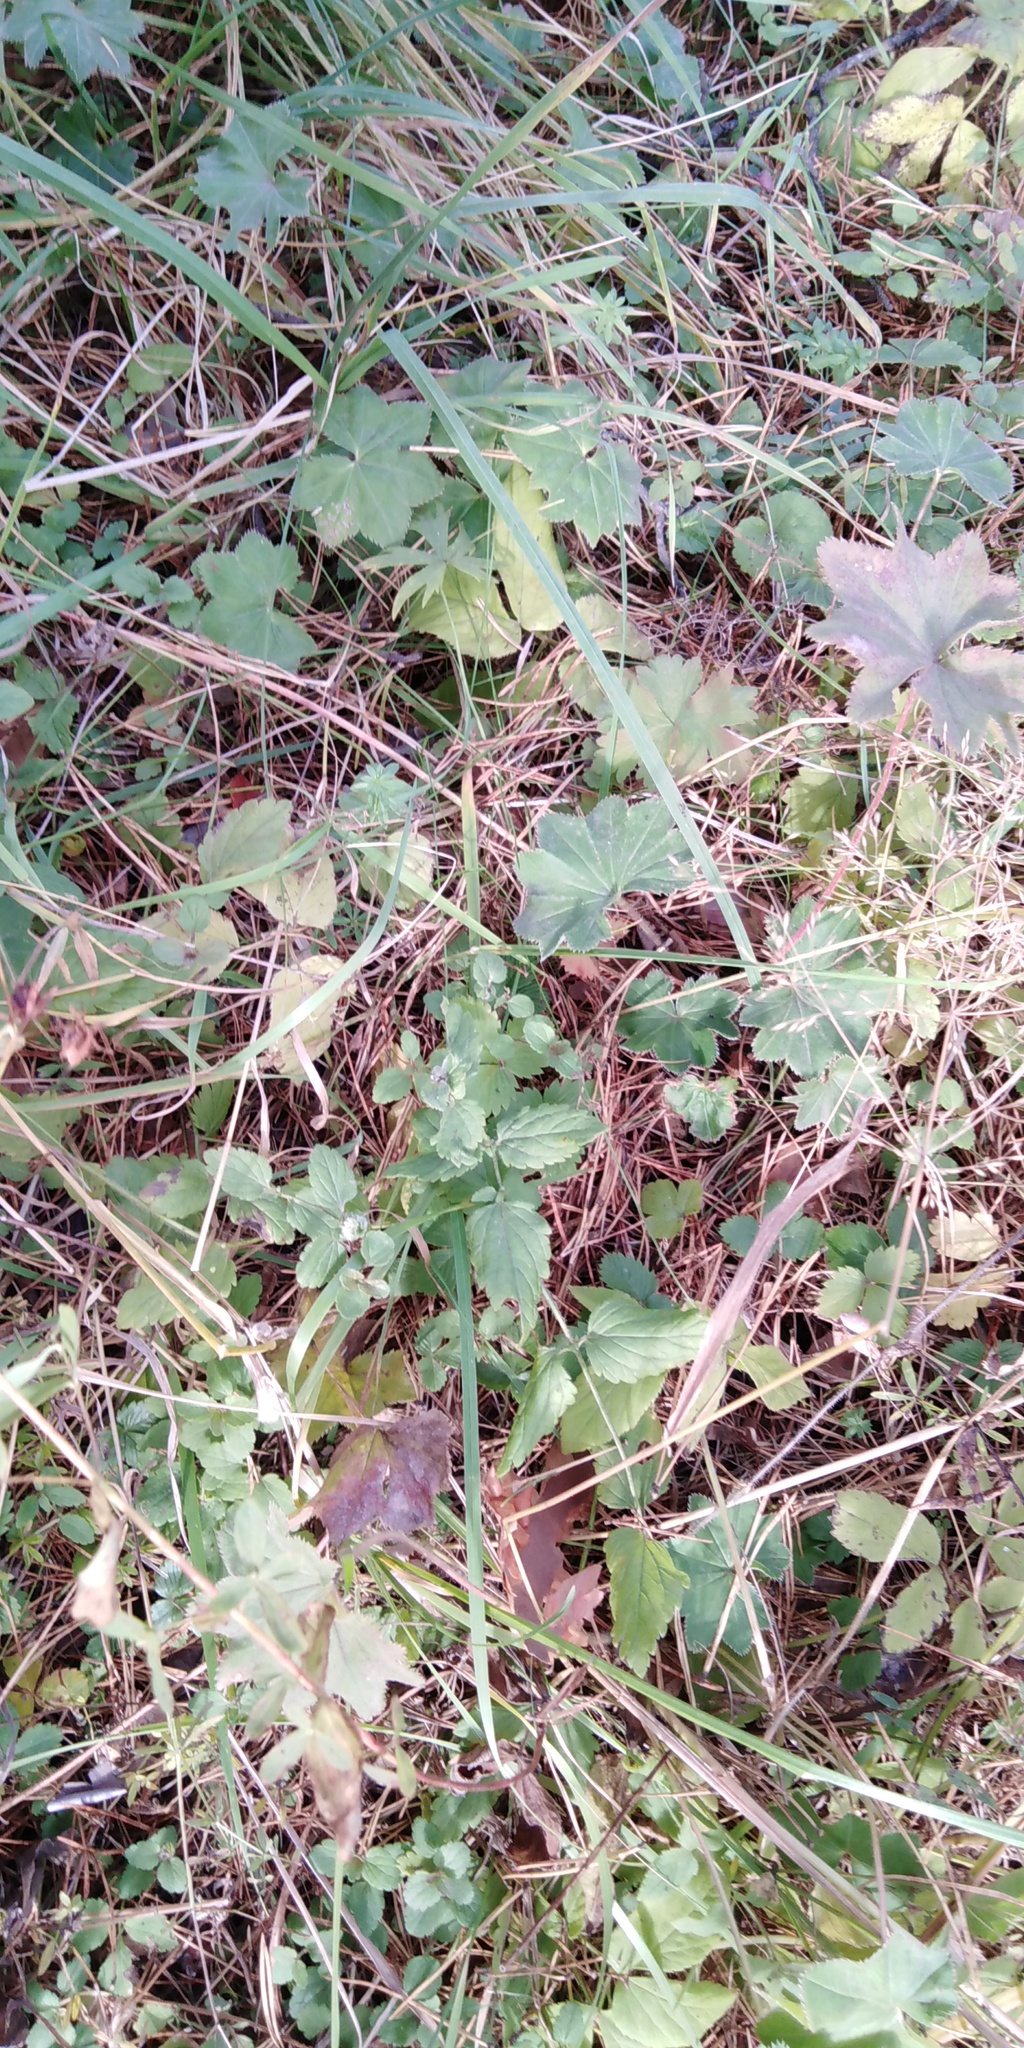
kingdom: Plantae
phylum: Tracheophyta
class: Magnoliopsida
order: Lamiales
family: Plantaginaceae
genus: Veronica
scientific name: Veronica chamaedrys
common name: Germander speedwell
